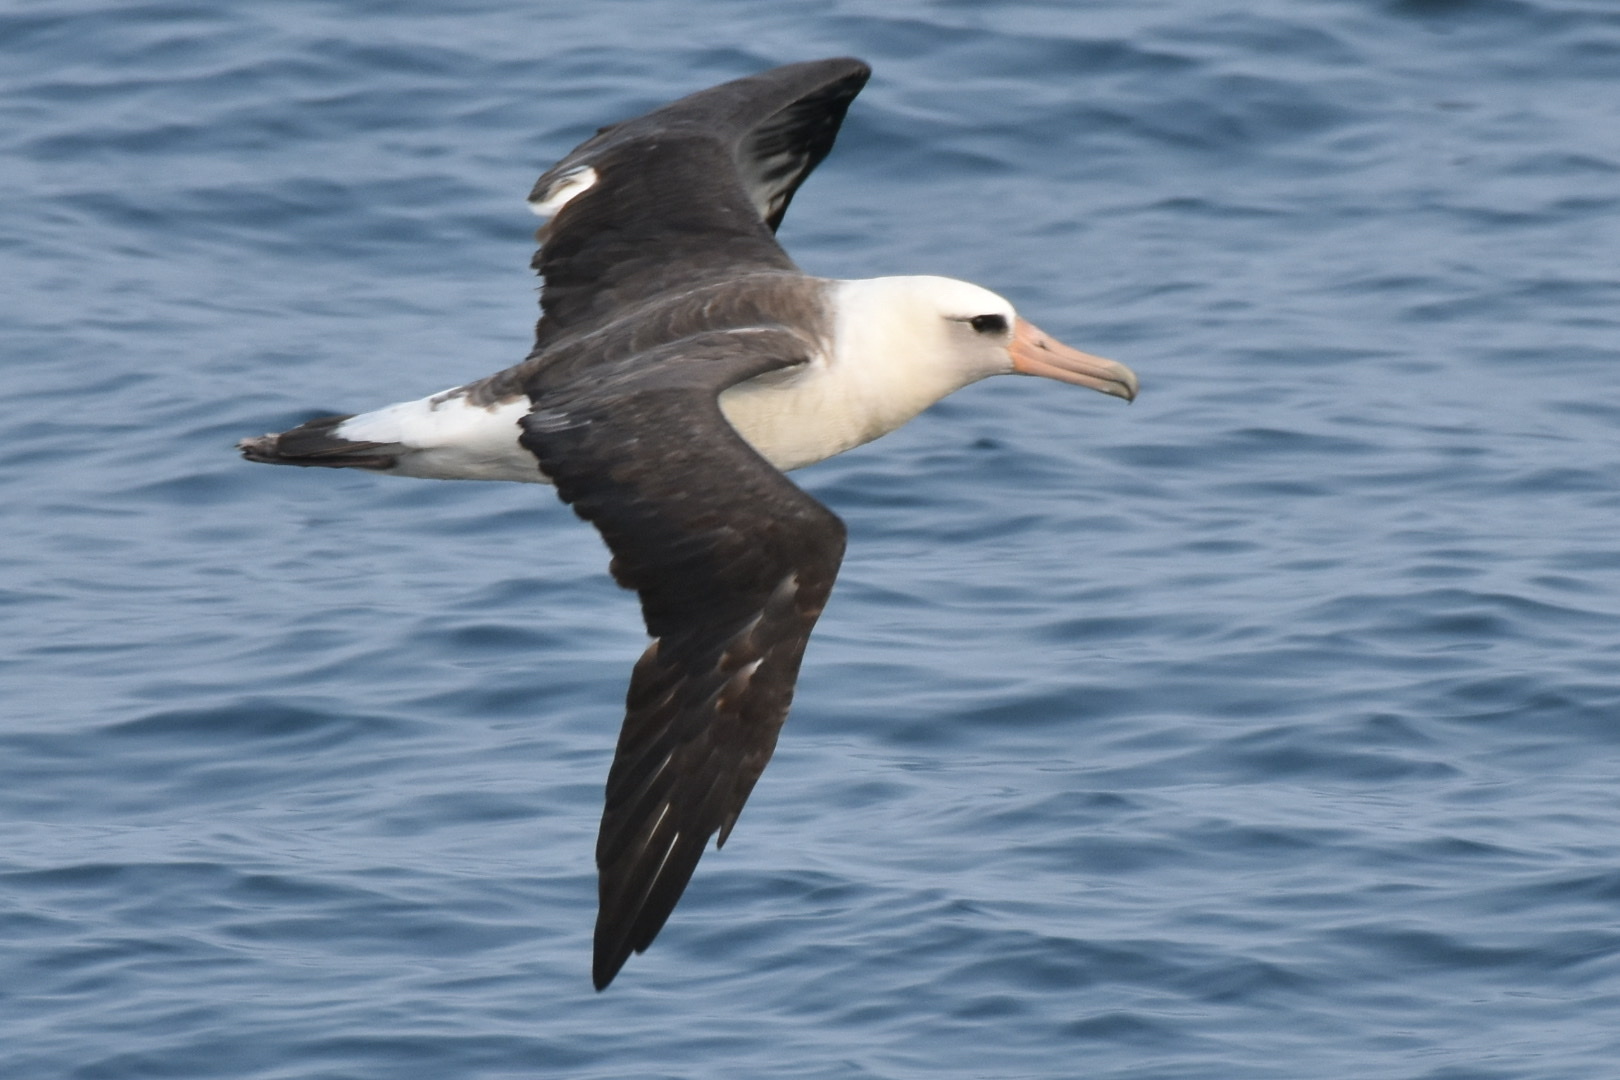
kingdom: Animalia
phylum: Chordata
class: Aves
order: Procellariiformes
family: Diomedeidae
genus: Phoebastria
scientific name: Phoebastria immutabilis
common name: Laysan albatross
